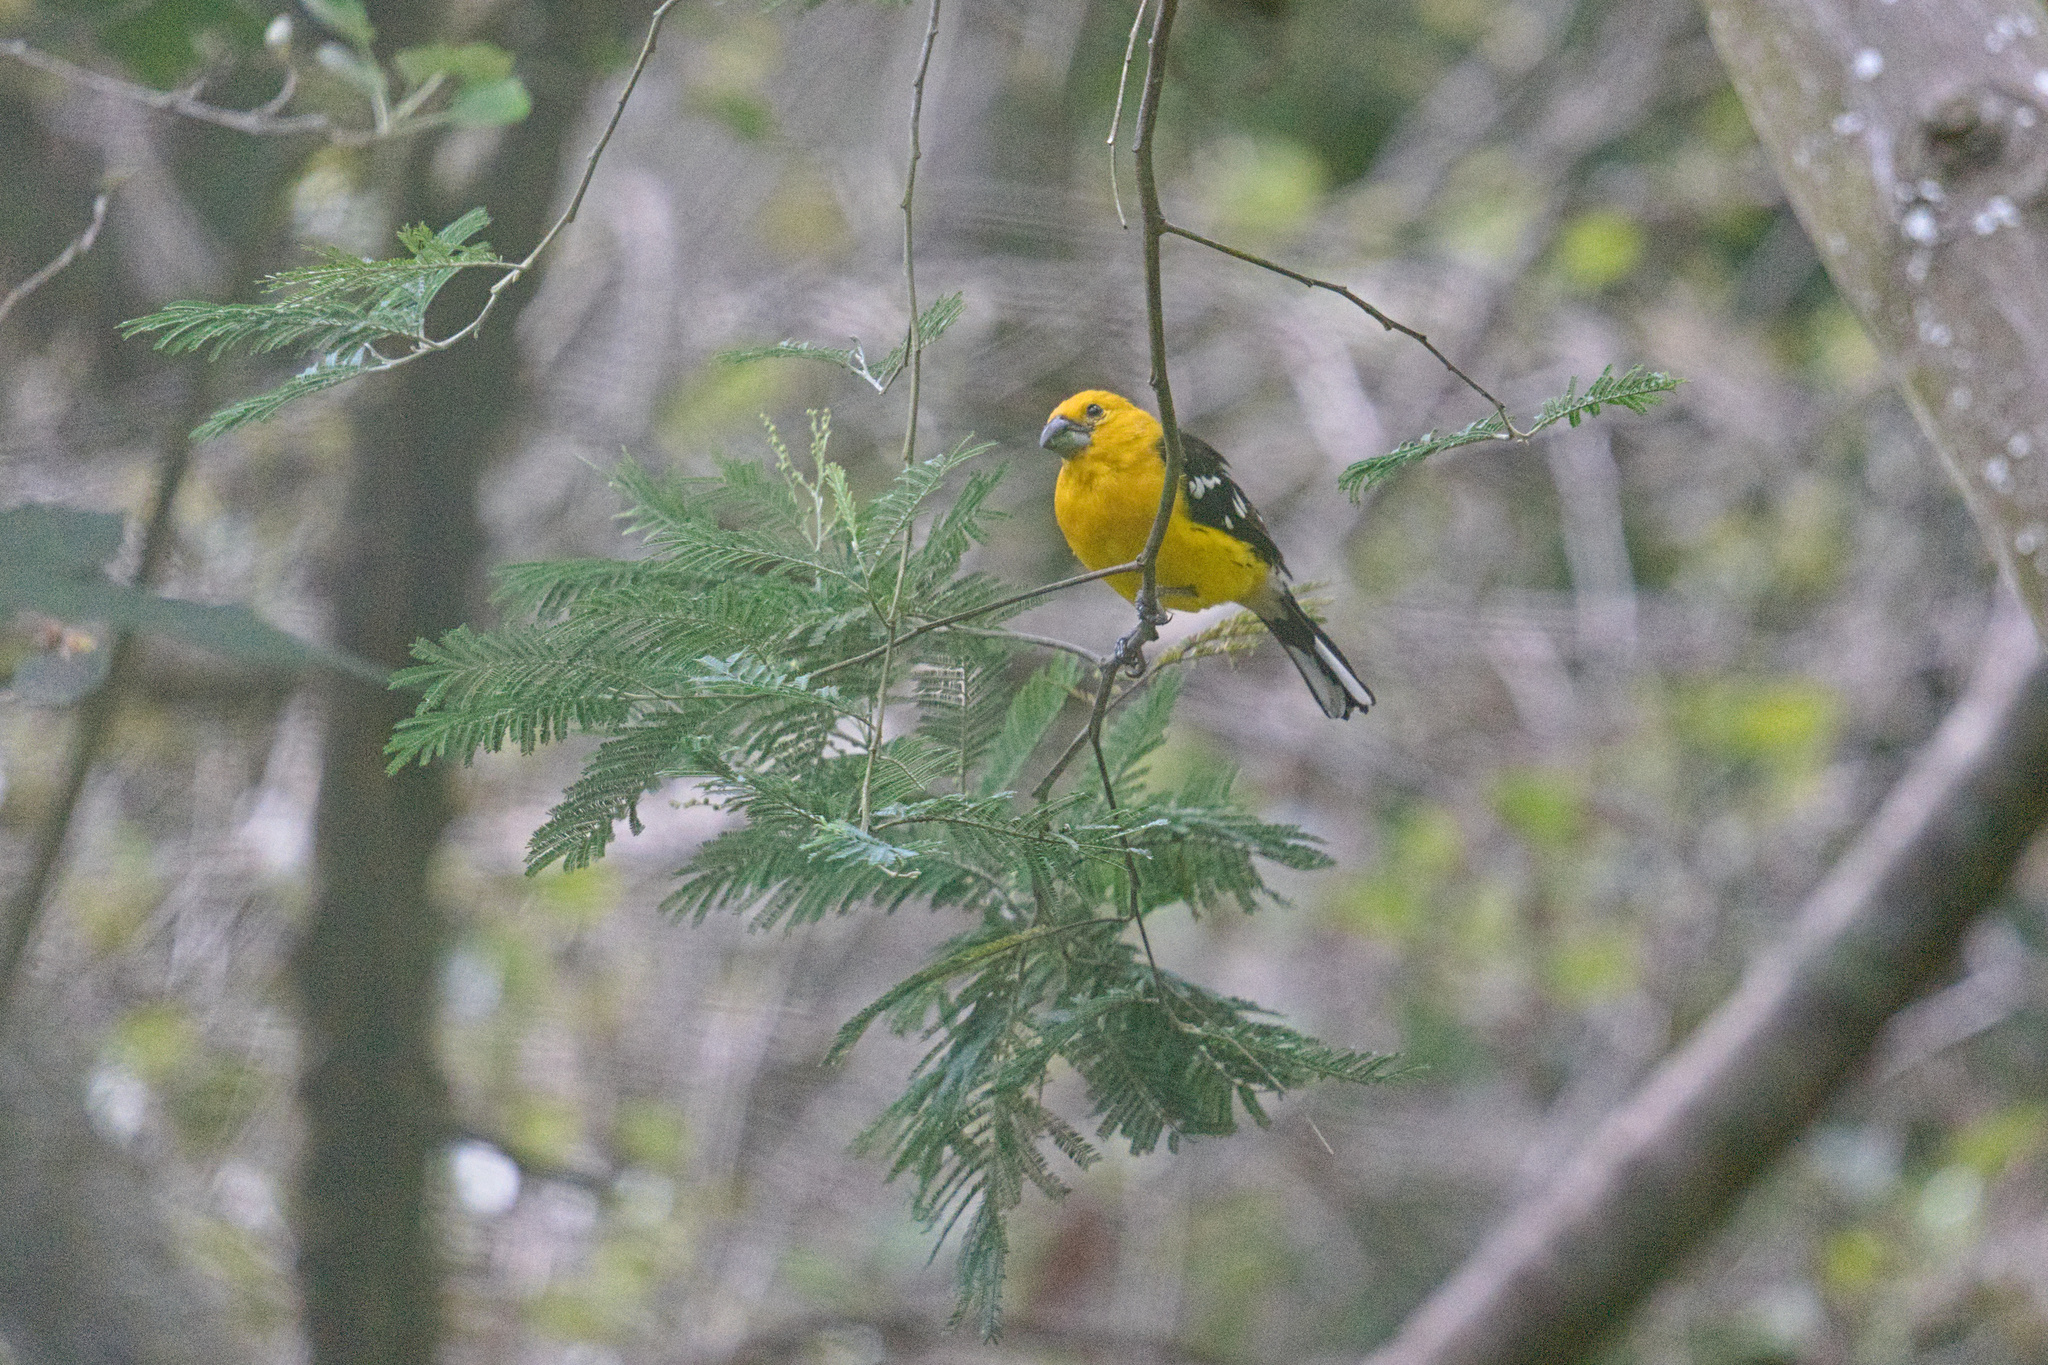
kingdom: Animalia
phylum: Chordata
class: Aves
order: Passeriformes
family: Cardinalidae
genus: Pheucticus
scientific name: Pheucticus chrysogaster
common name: Golden grosbeak
